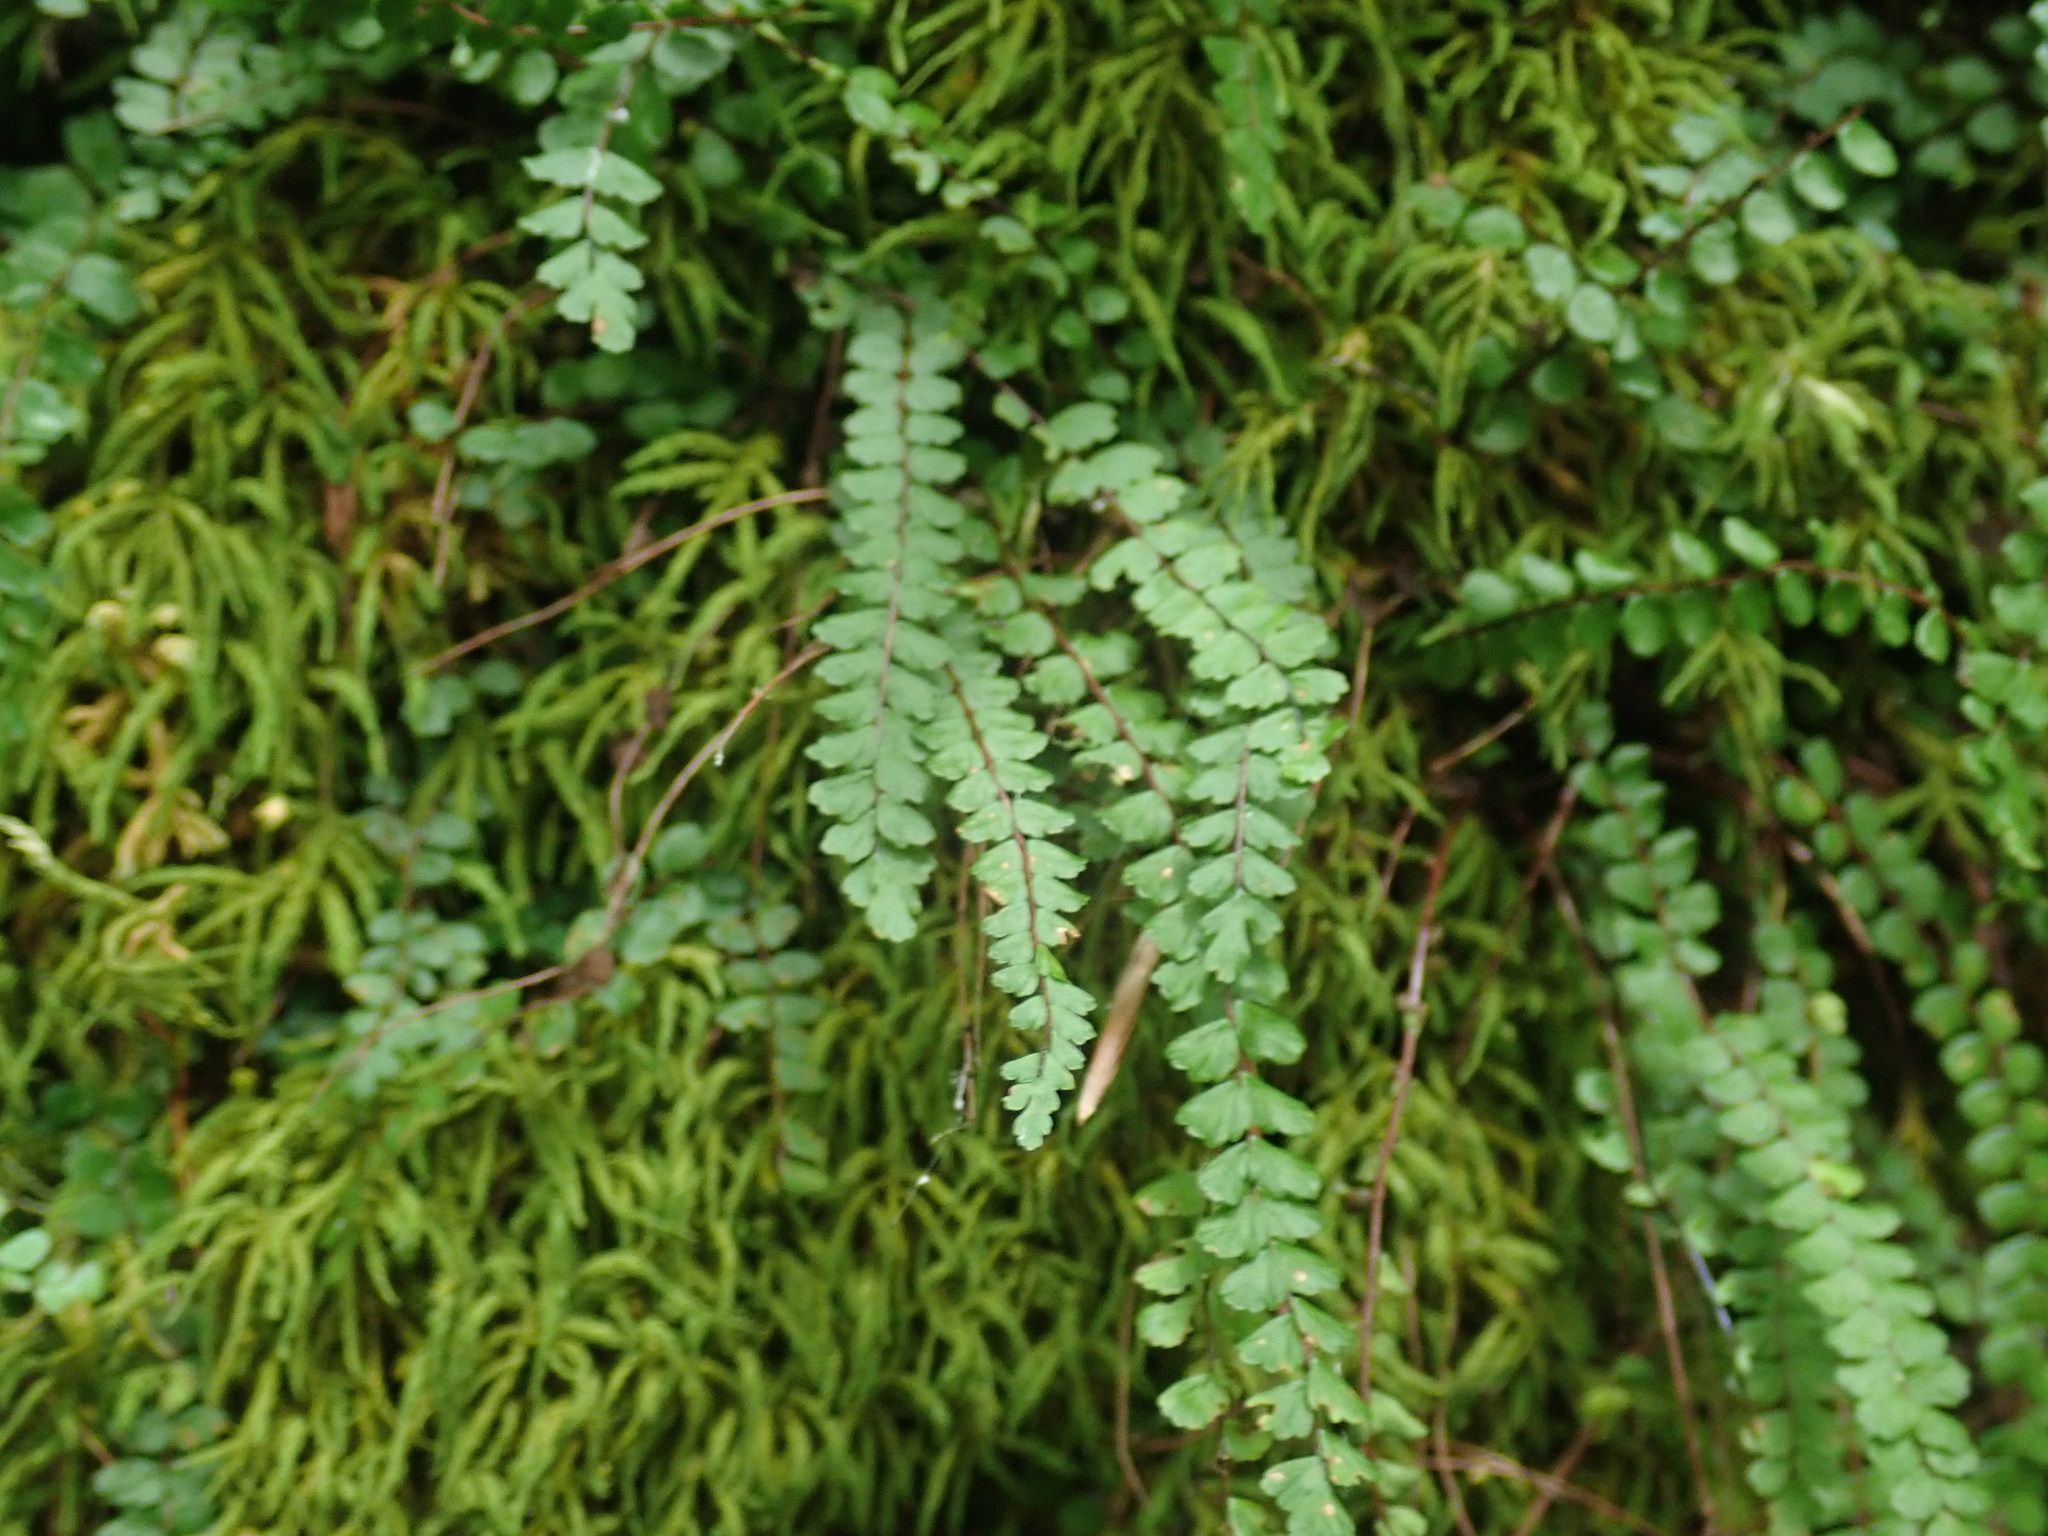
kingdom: Plantae
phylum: Tracheophyta
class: Polypodiopsida
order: Polypodiales
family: Aspleniaceae
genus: Asplenium
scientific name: Asplenium trichomanes
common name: Maidenhair spleenwort
